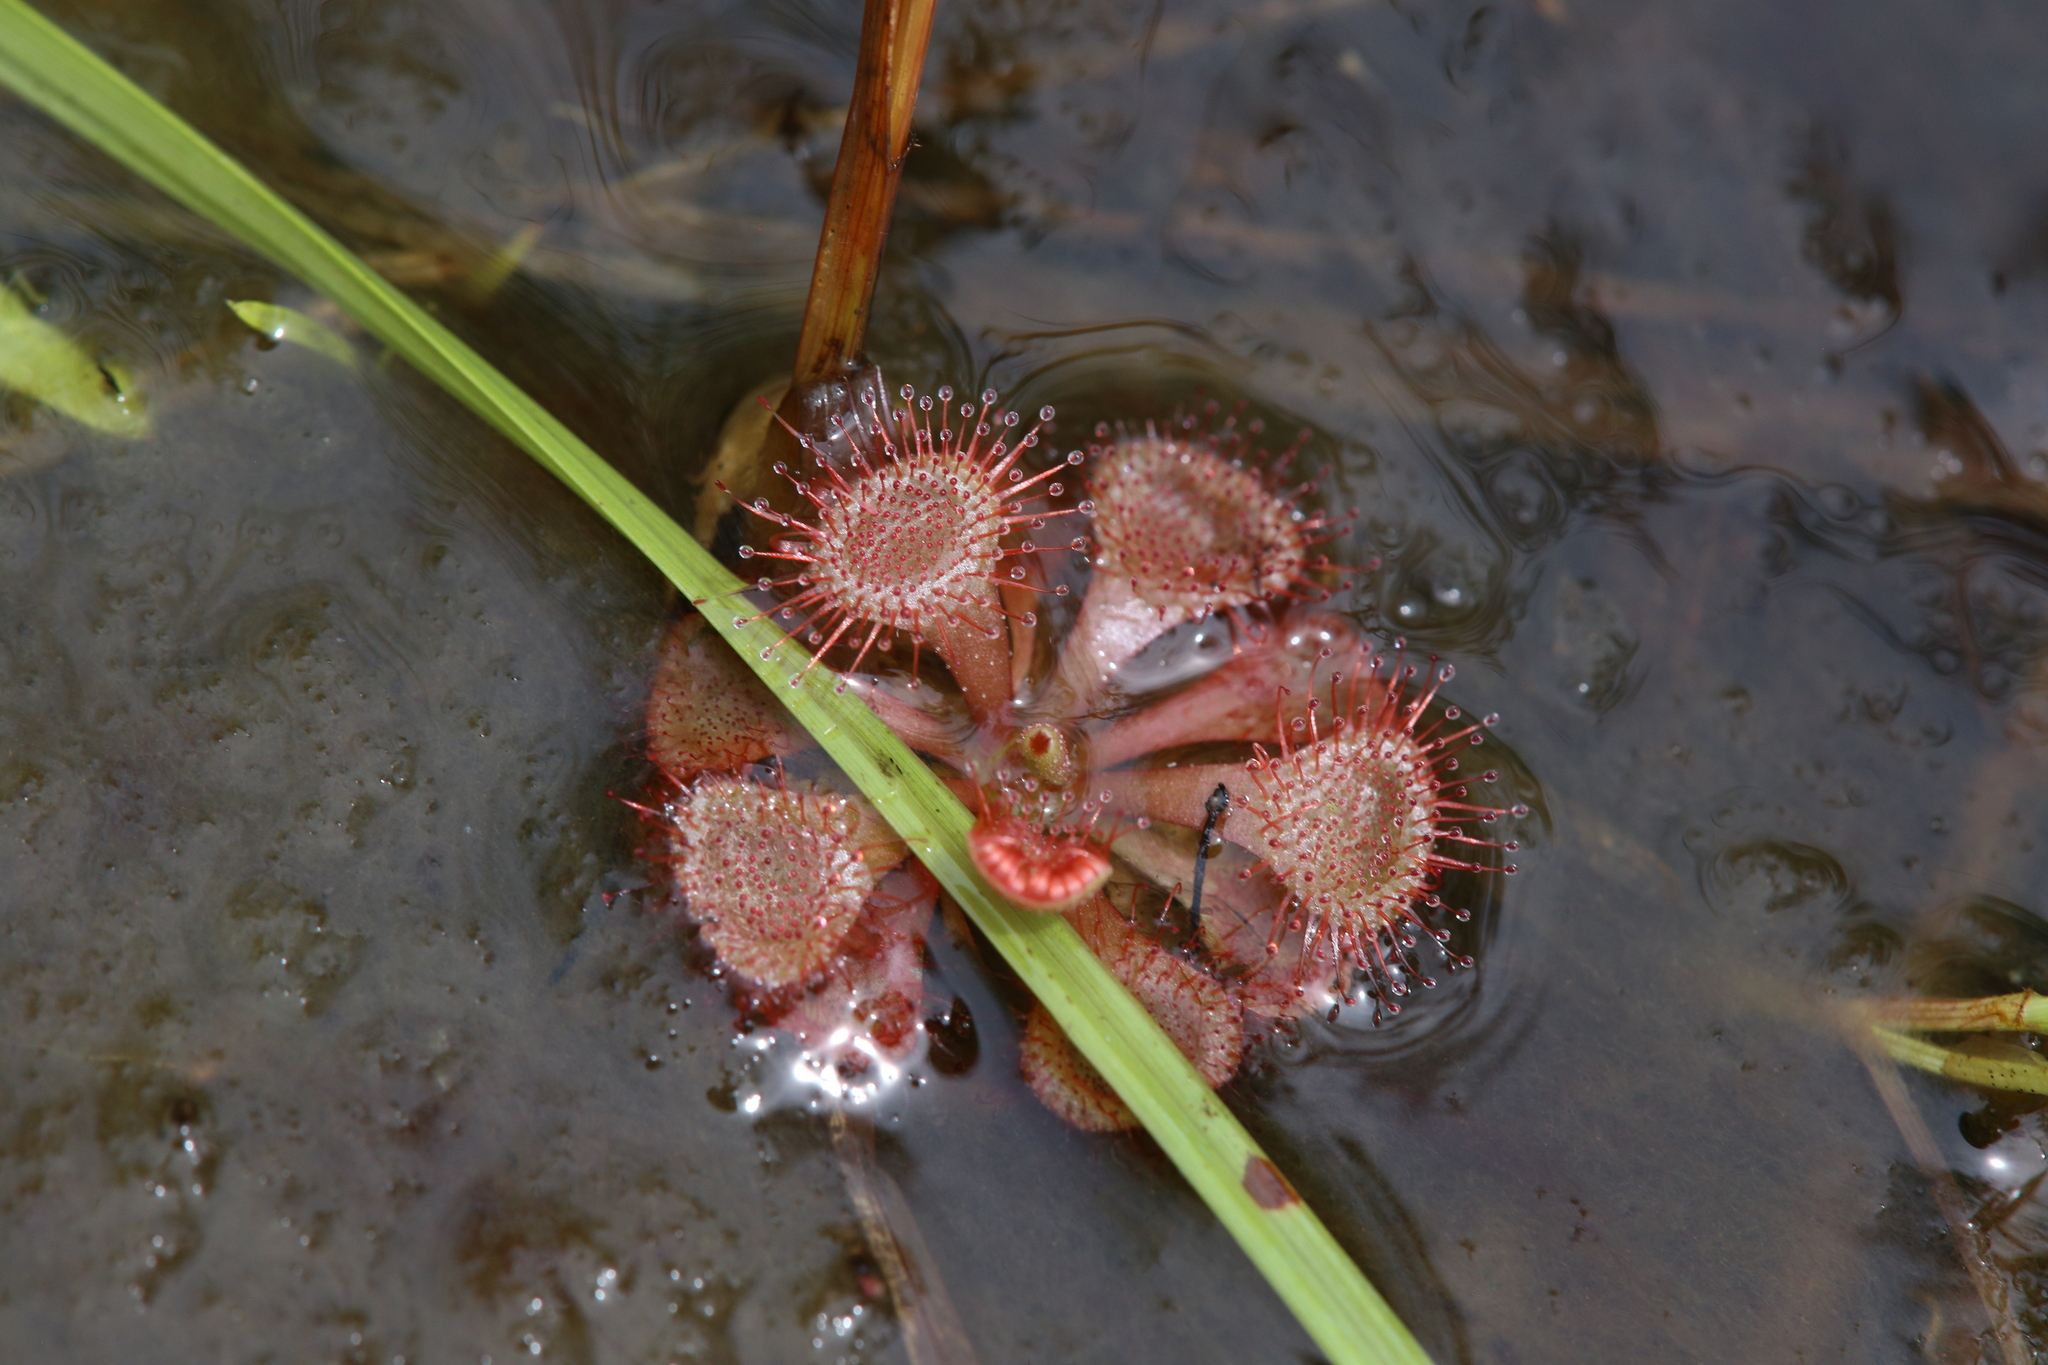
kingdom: Plantae
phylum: Tracheophyta
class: Magnoliopsida
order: Caryophyllales
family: Droseraceae
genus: Drosera
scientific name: Drosera spatulata
